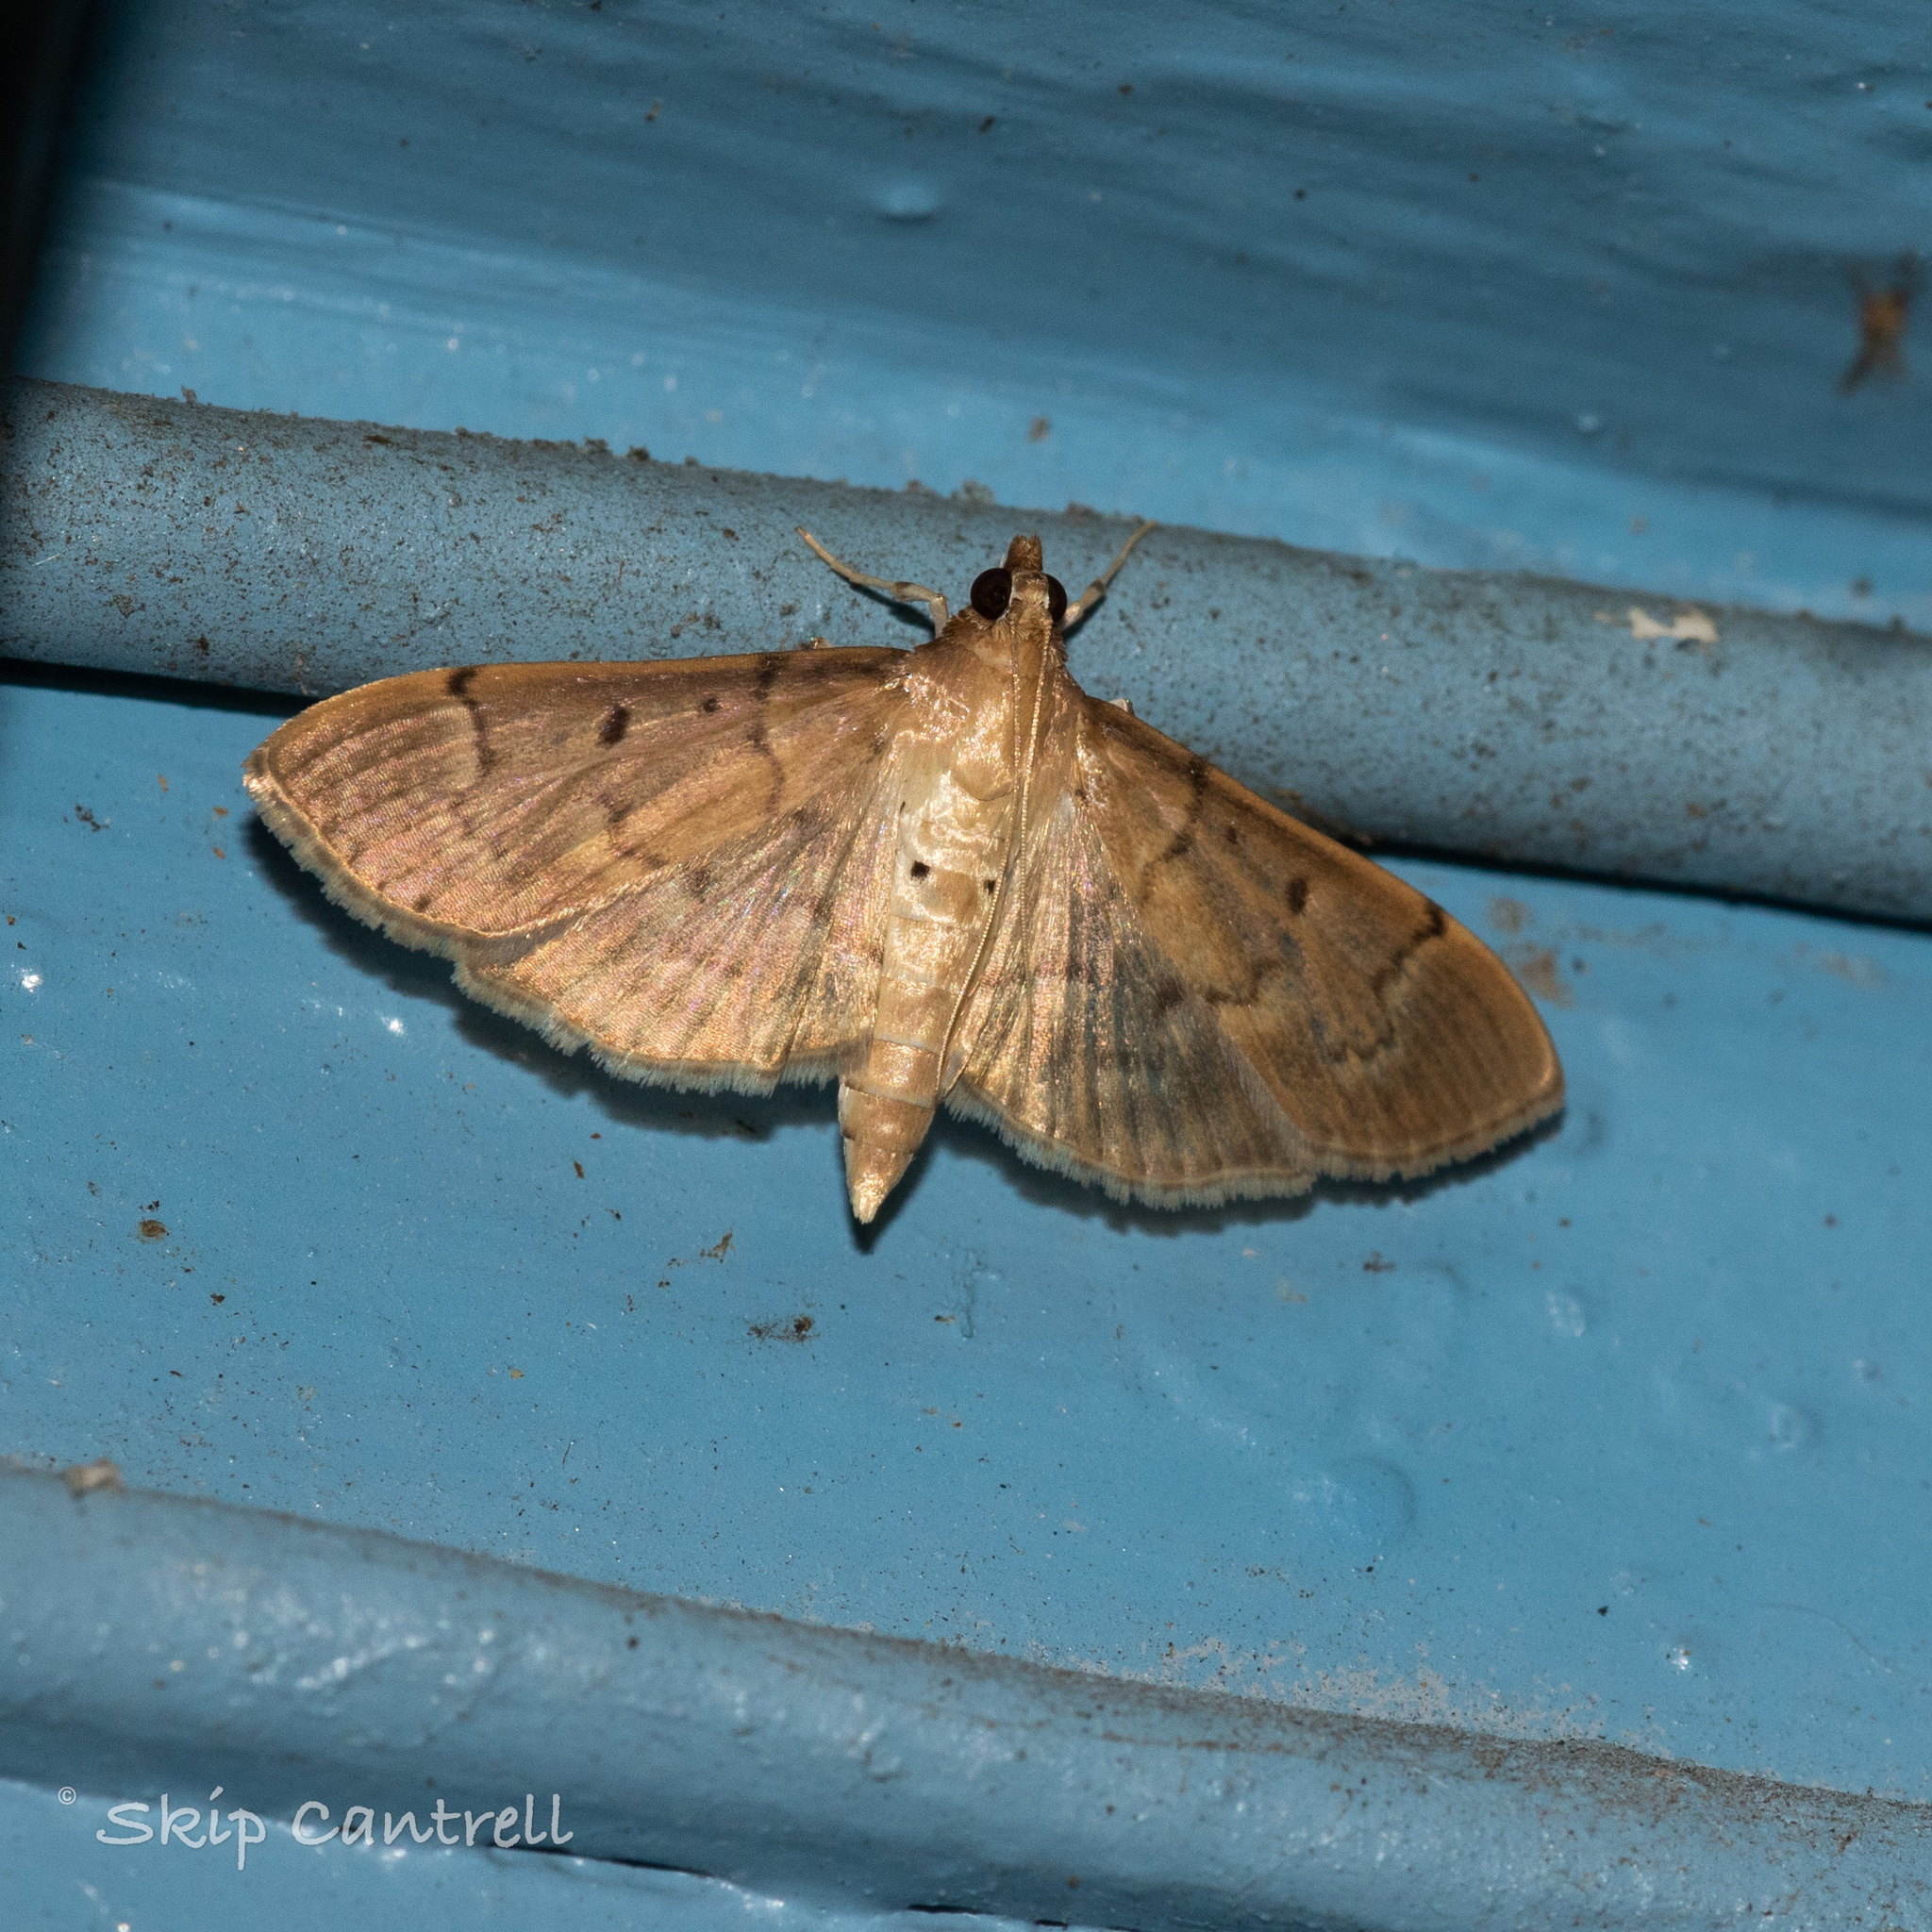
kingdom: Animalia
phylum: Arthropoda
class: Insecta
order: Lepidoptera
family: Crambidae
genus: Herpetogramma
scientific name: Herpetogramma bipunctalis
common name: Southern beet webworm
